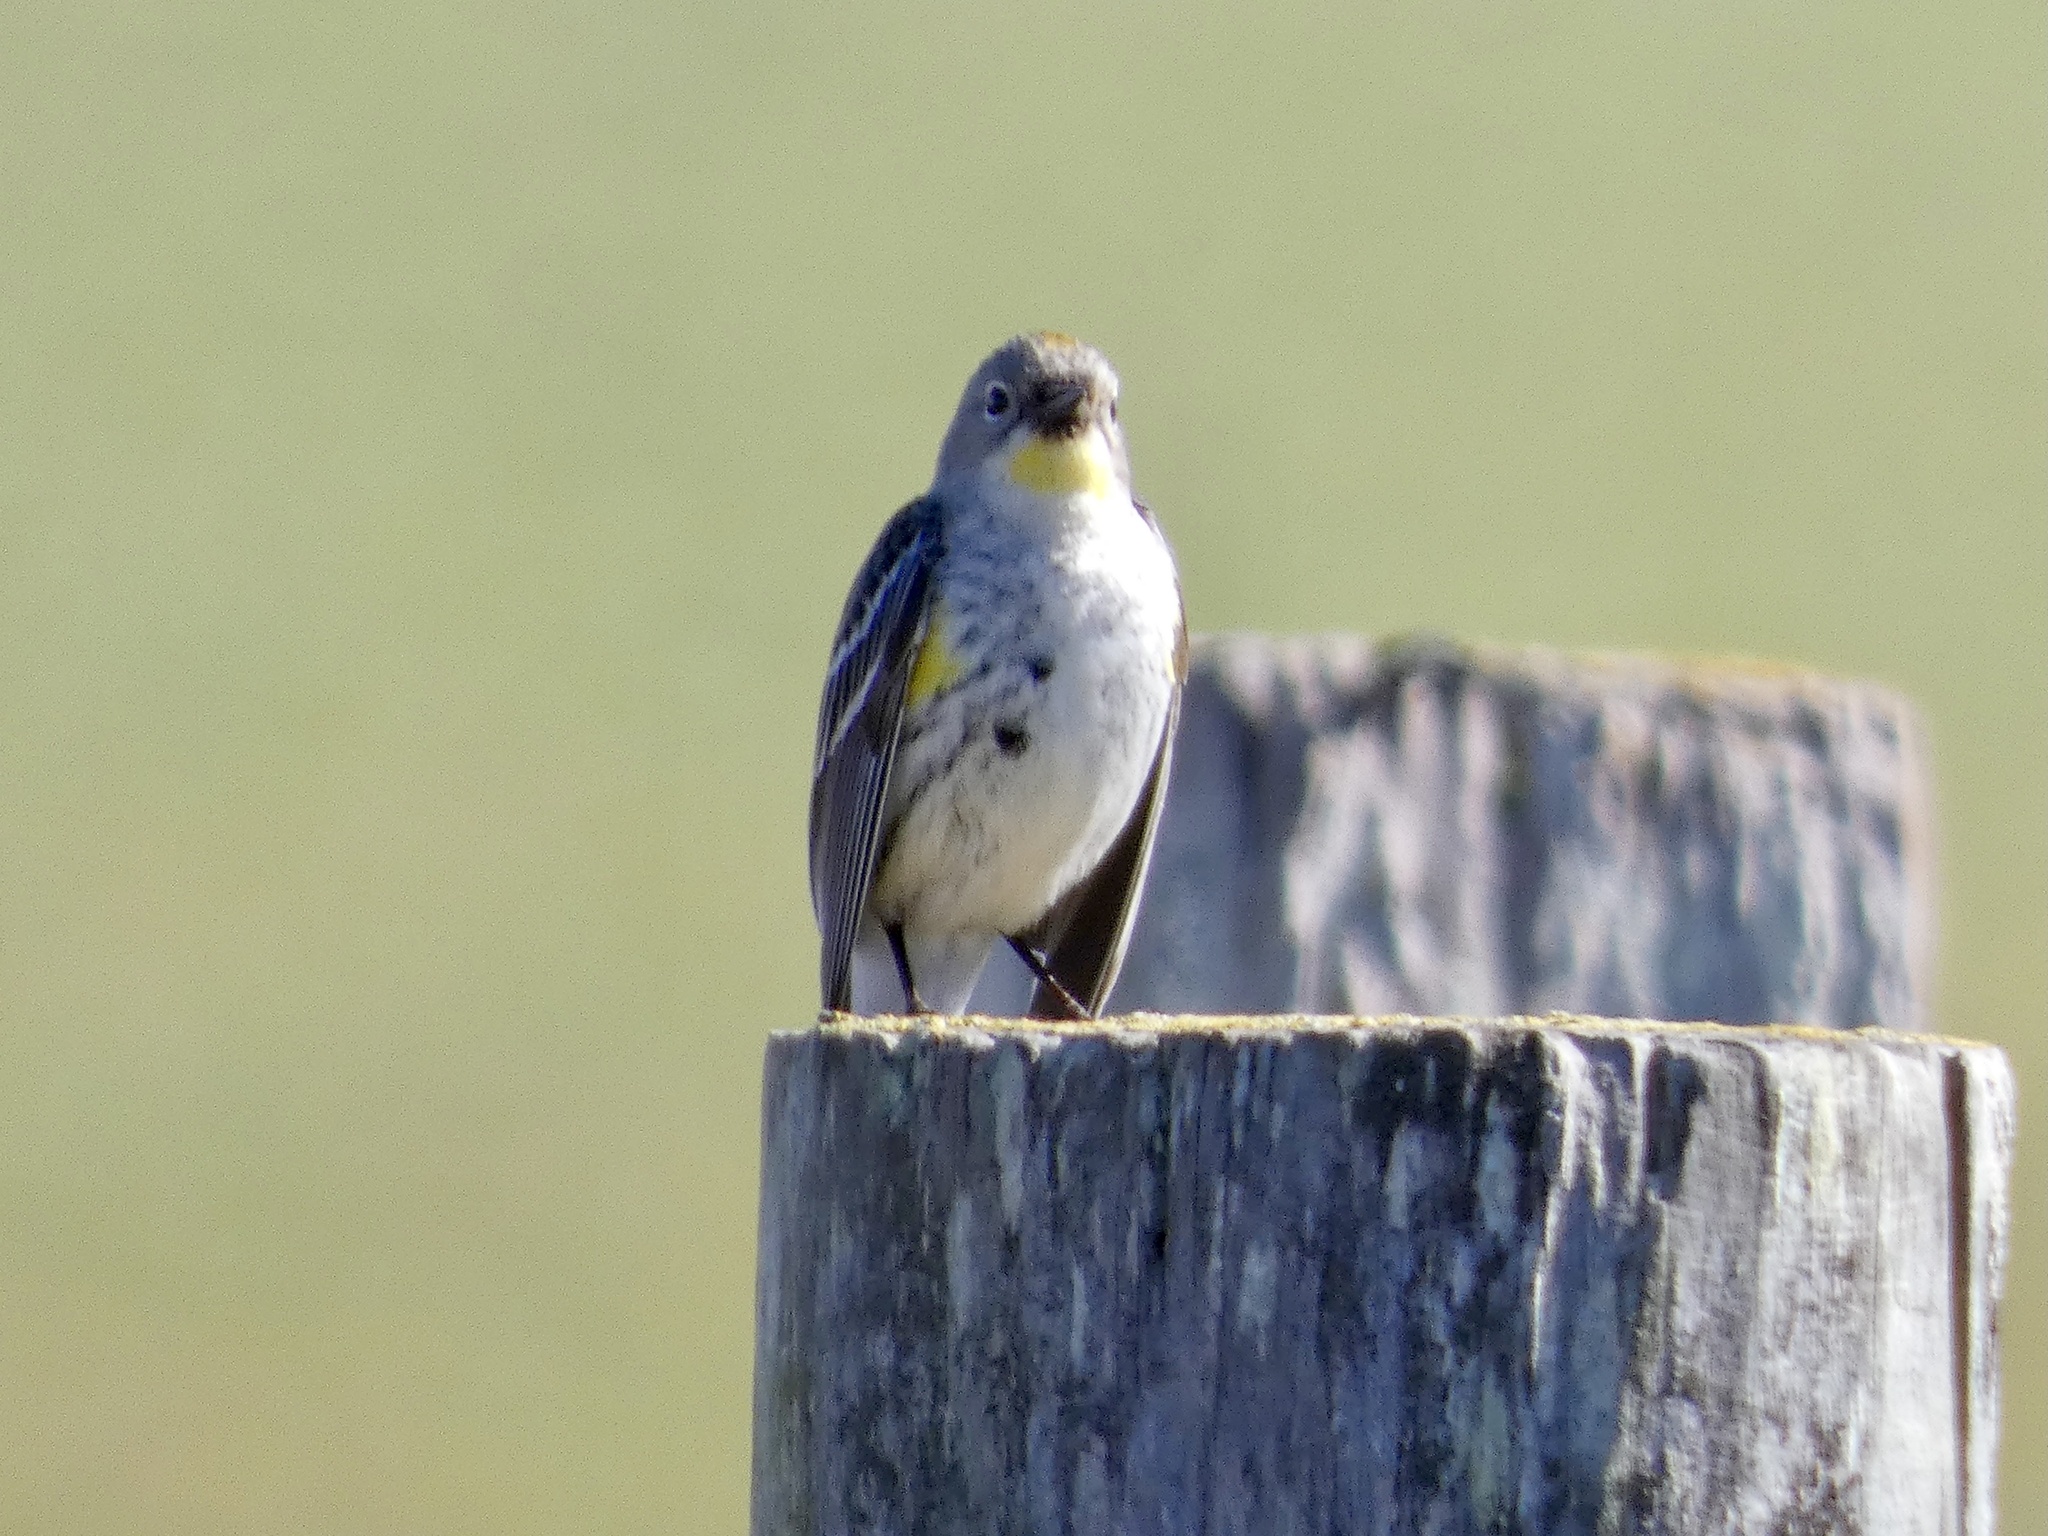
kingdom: Animalia
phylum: Chordata
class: Aves
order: Passeriformes
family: Parulidae
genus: Setophaga
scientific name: Setophaga coronata
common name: Myrtle warbler
